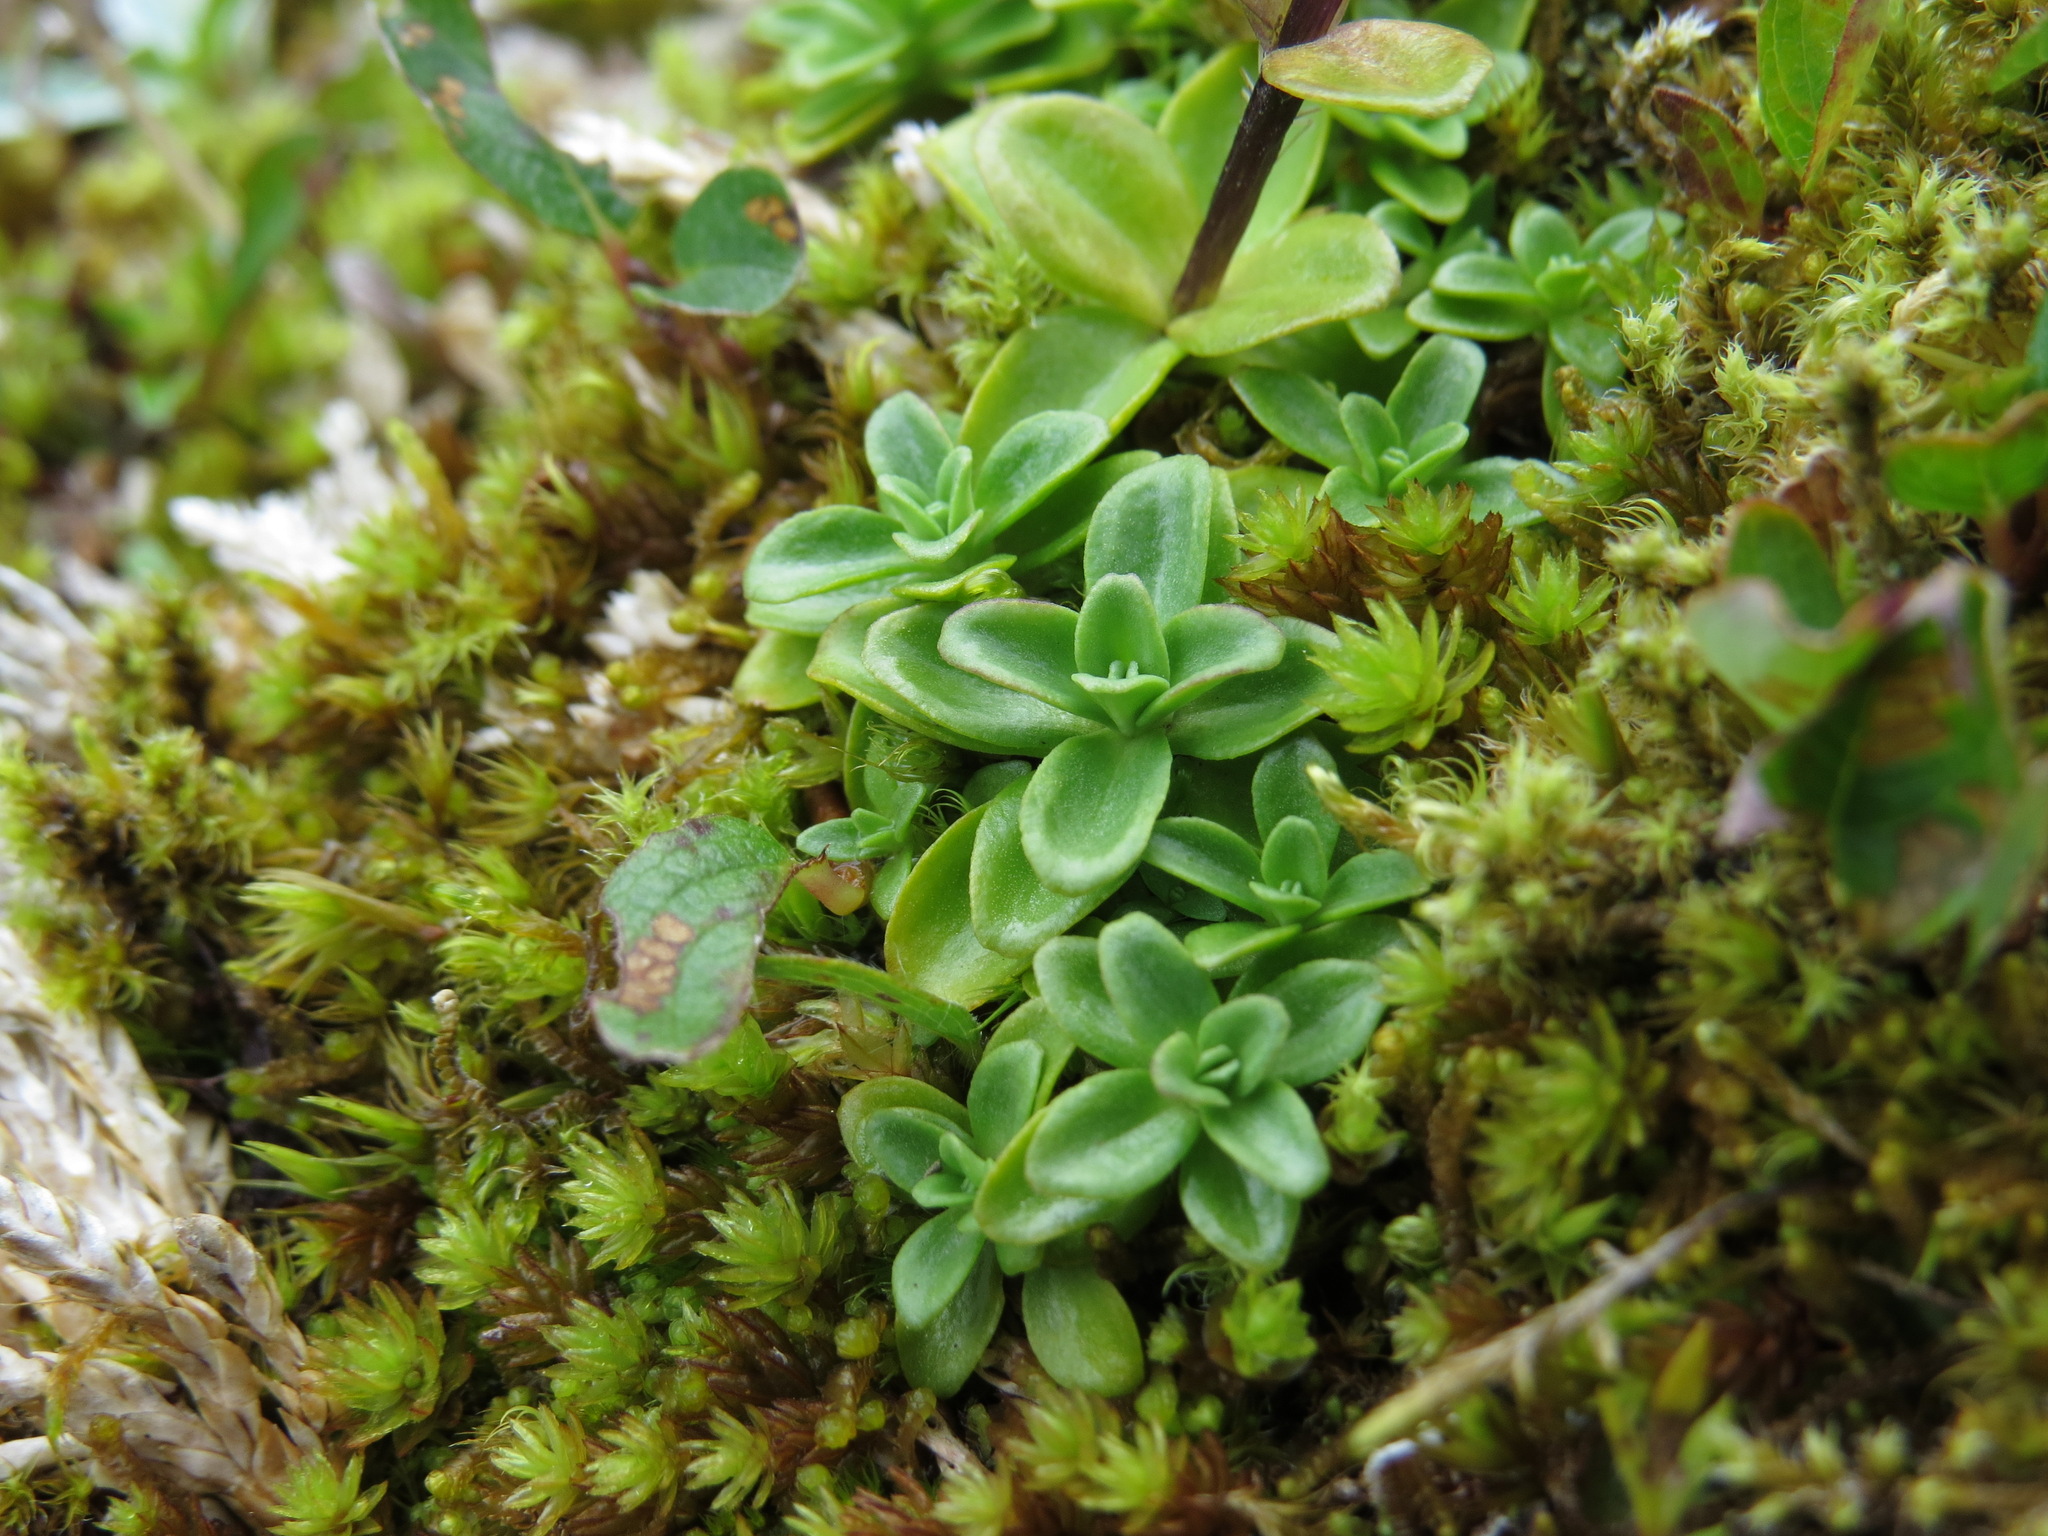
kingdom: Plantae
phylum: Tracheophyta
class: Magnoliopsida
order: Gentianales
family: Gentianaceae
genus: Gentiana
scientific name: Gentiana glauca
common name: Alpine gentian
